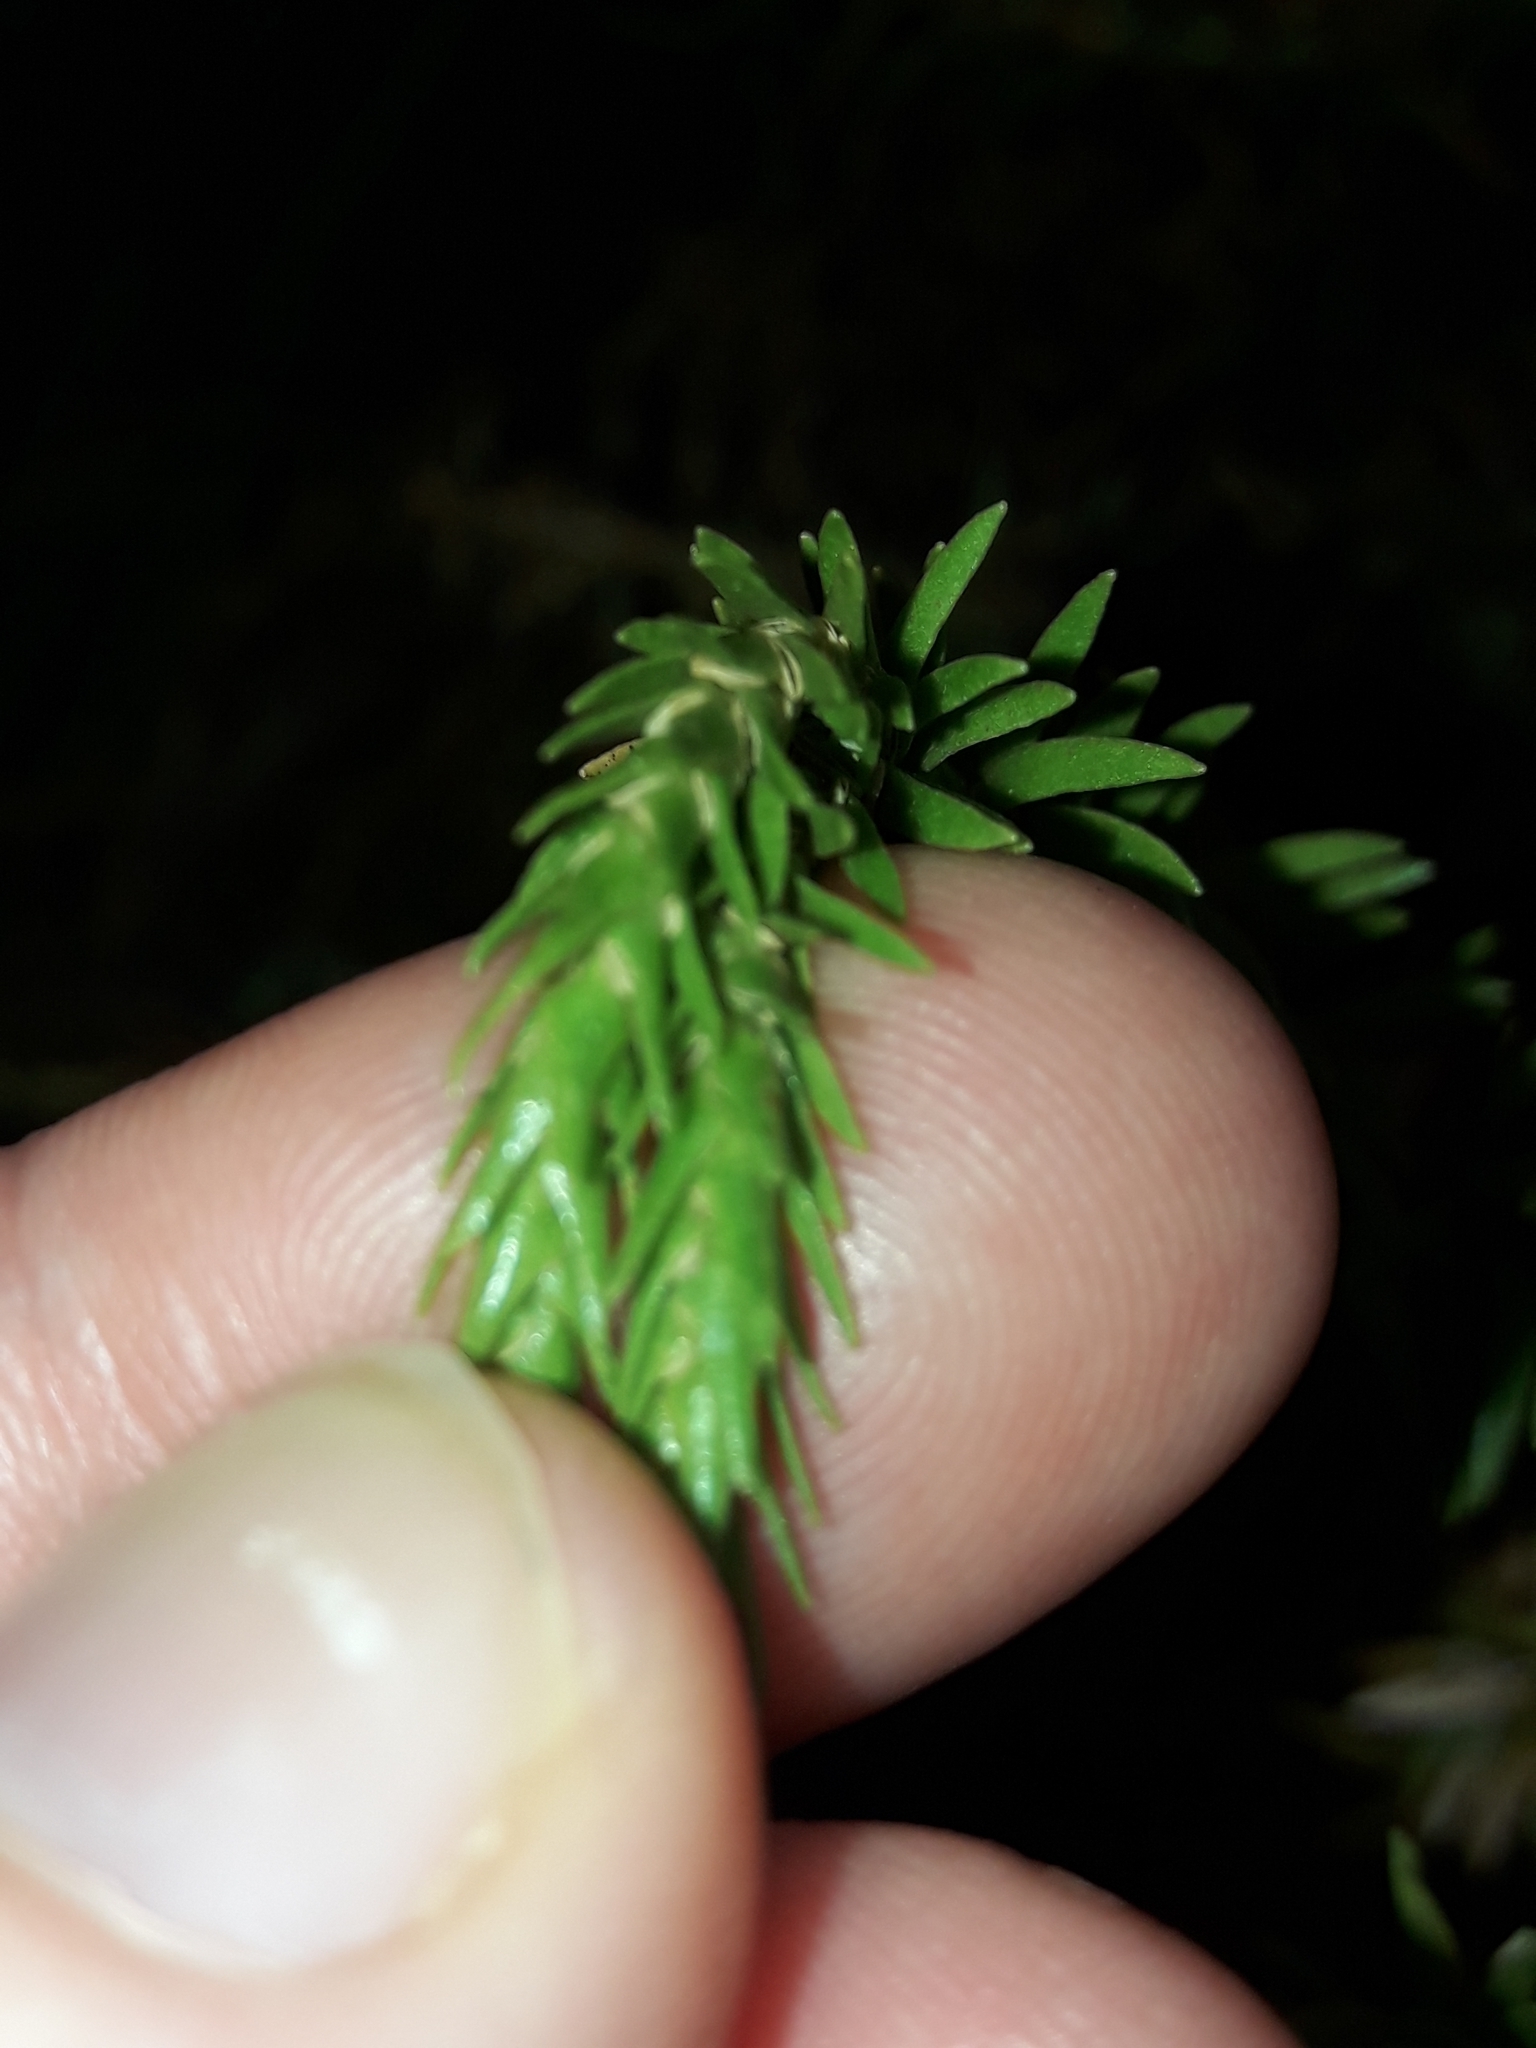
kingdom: Plantae
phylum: Tracheophyta
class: Lycopodiopsida
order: Lycopodiales
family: Lycopodiaceae
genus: Phlegmariurus
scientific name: Phlegmariurus varius
